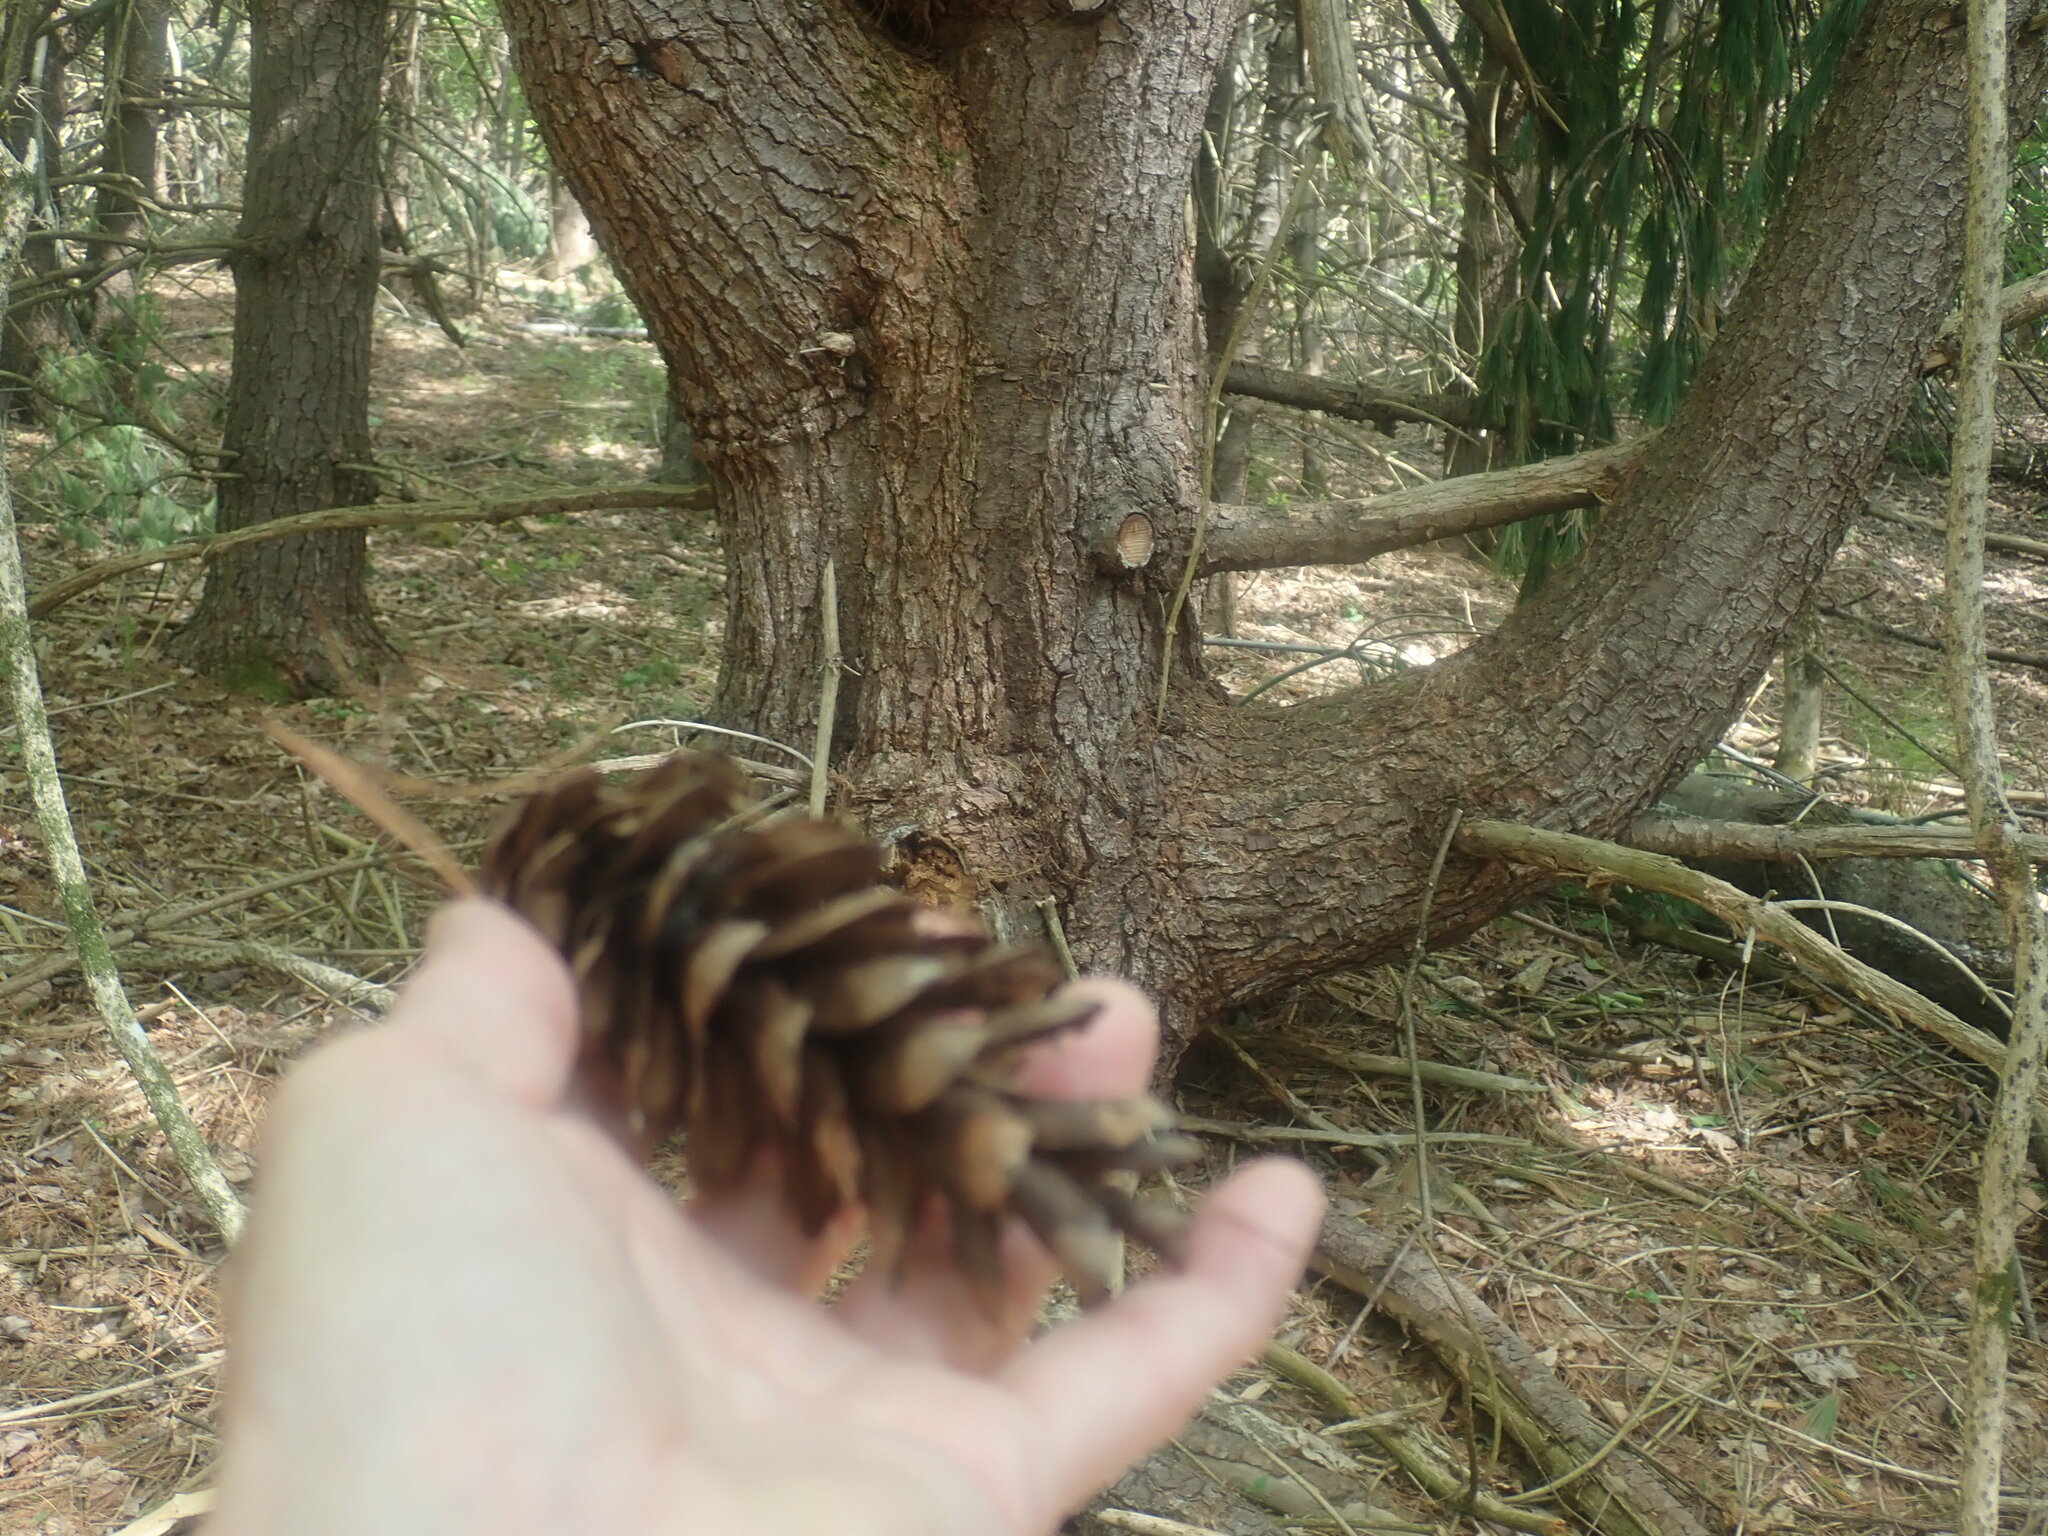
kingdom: Plantae
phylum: Tracheophyta
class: Pinopsida
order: Pinales
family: Pinaceae
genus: Pinus
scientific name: Pinus strobus
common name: Weymouth pine
